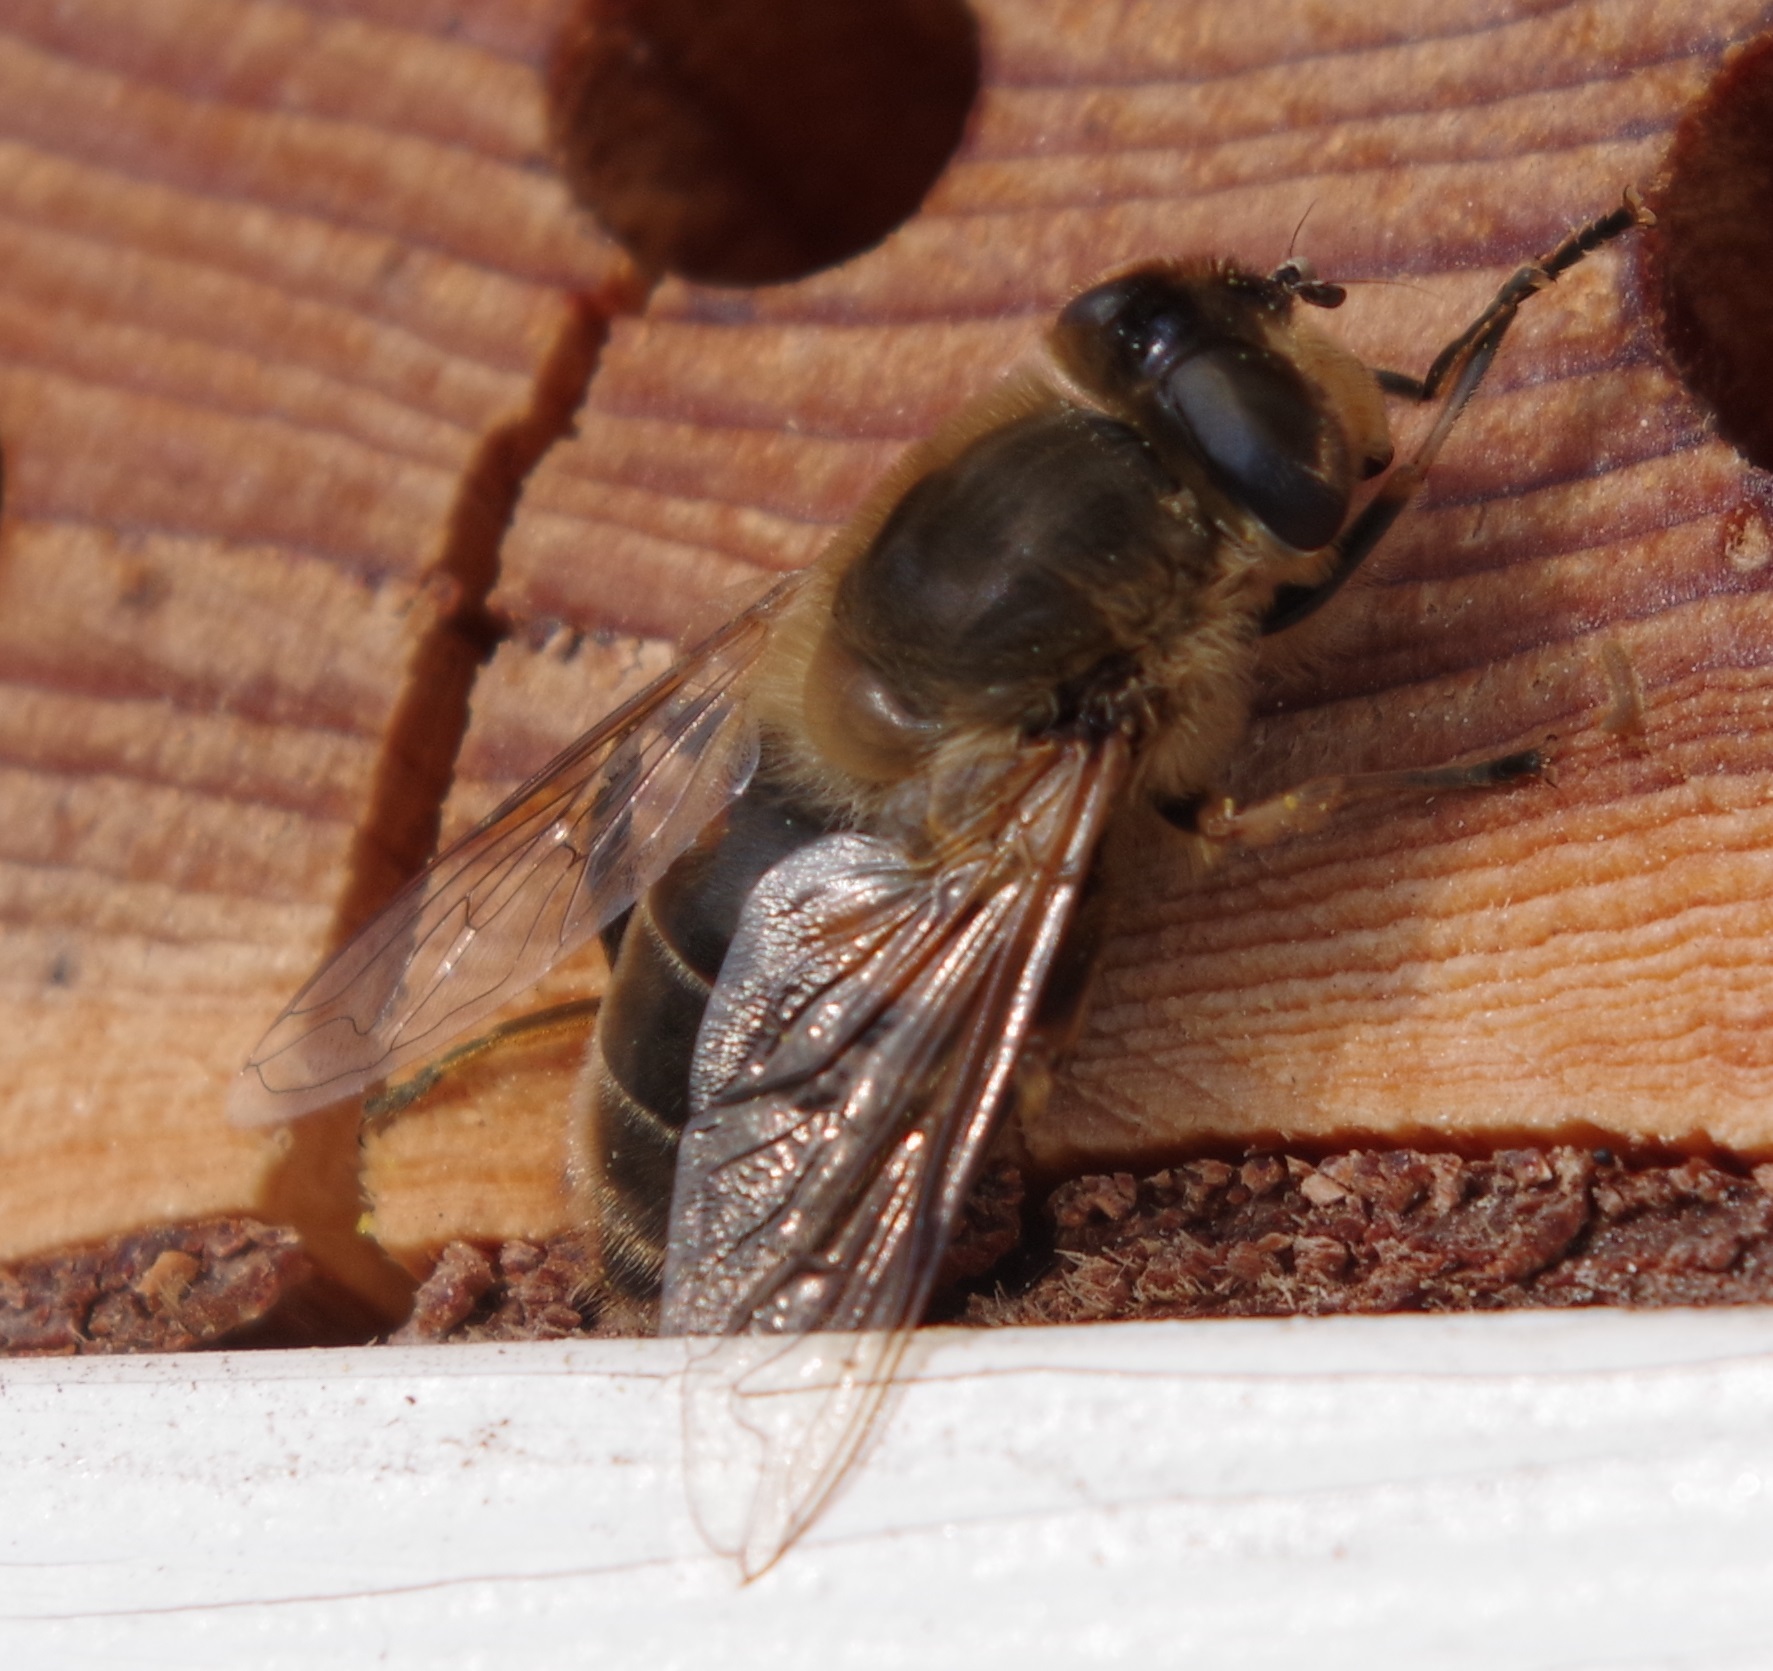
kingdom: Animalia
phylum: Arthropoda
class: Insecta
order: Diptera
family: Syrphidae
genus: Eristalis
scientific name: Eristalis tenax
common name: Drone fly
